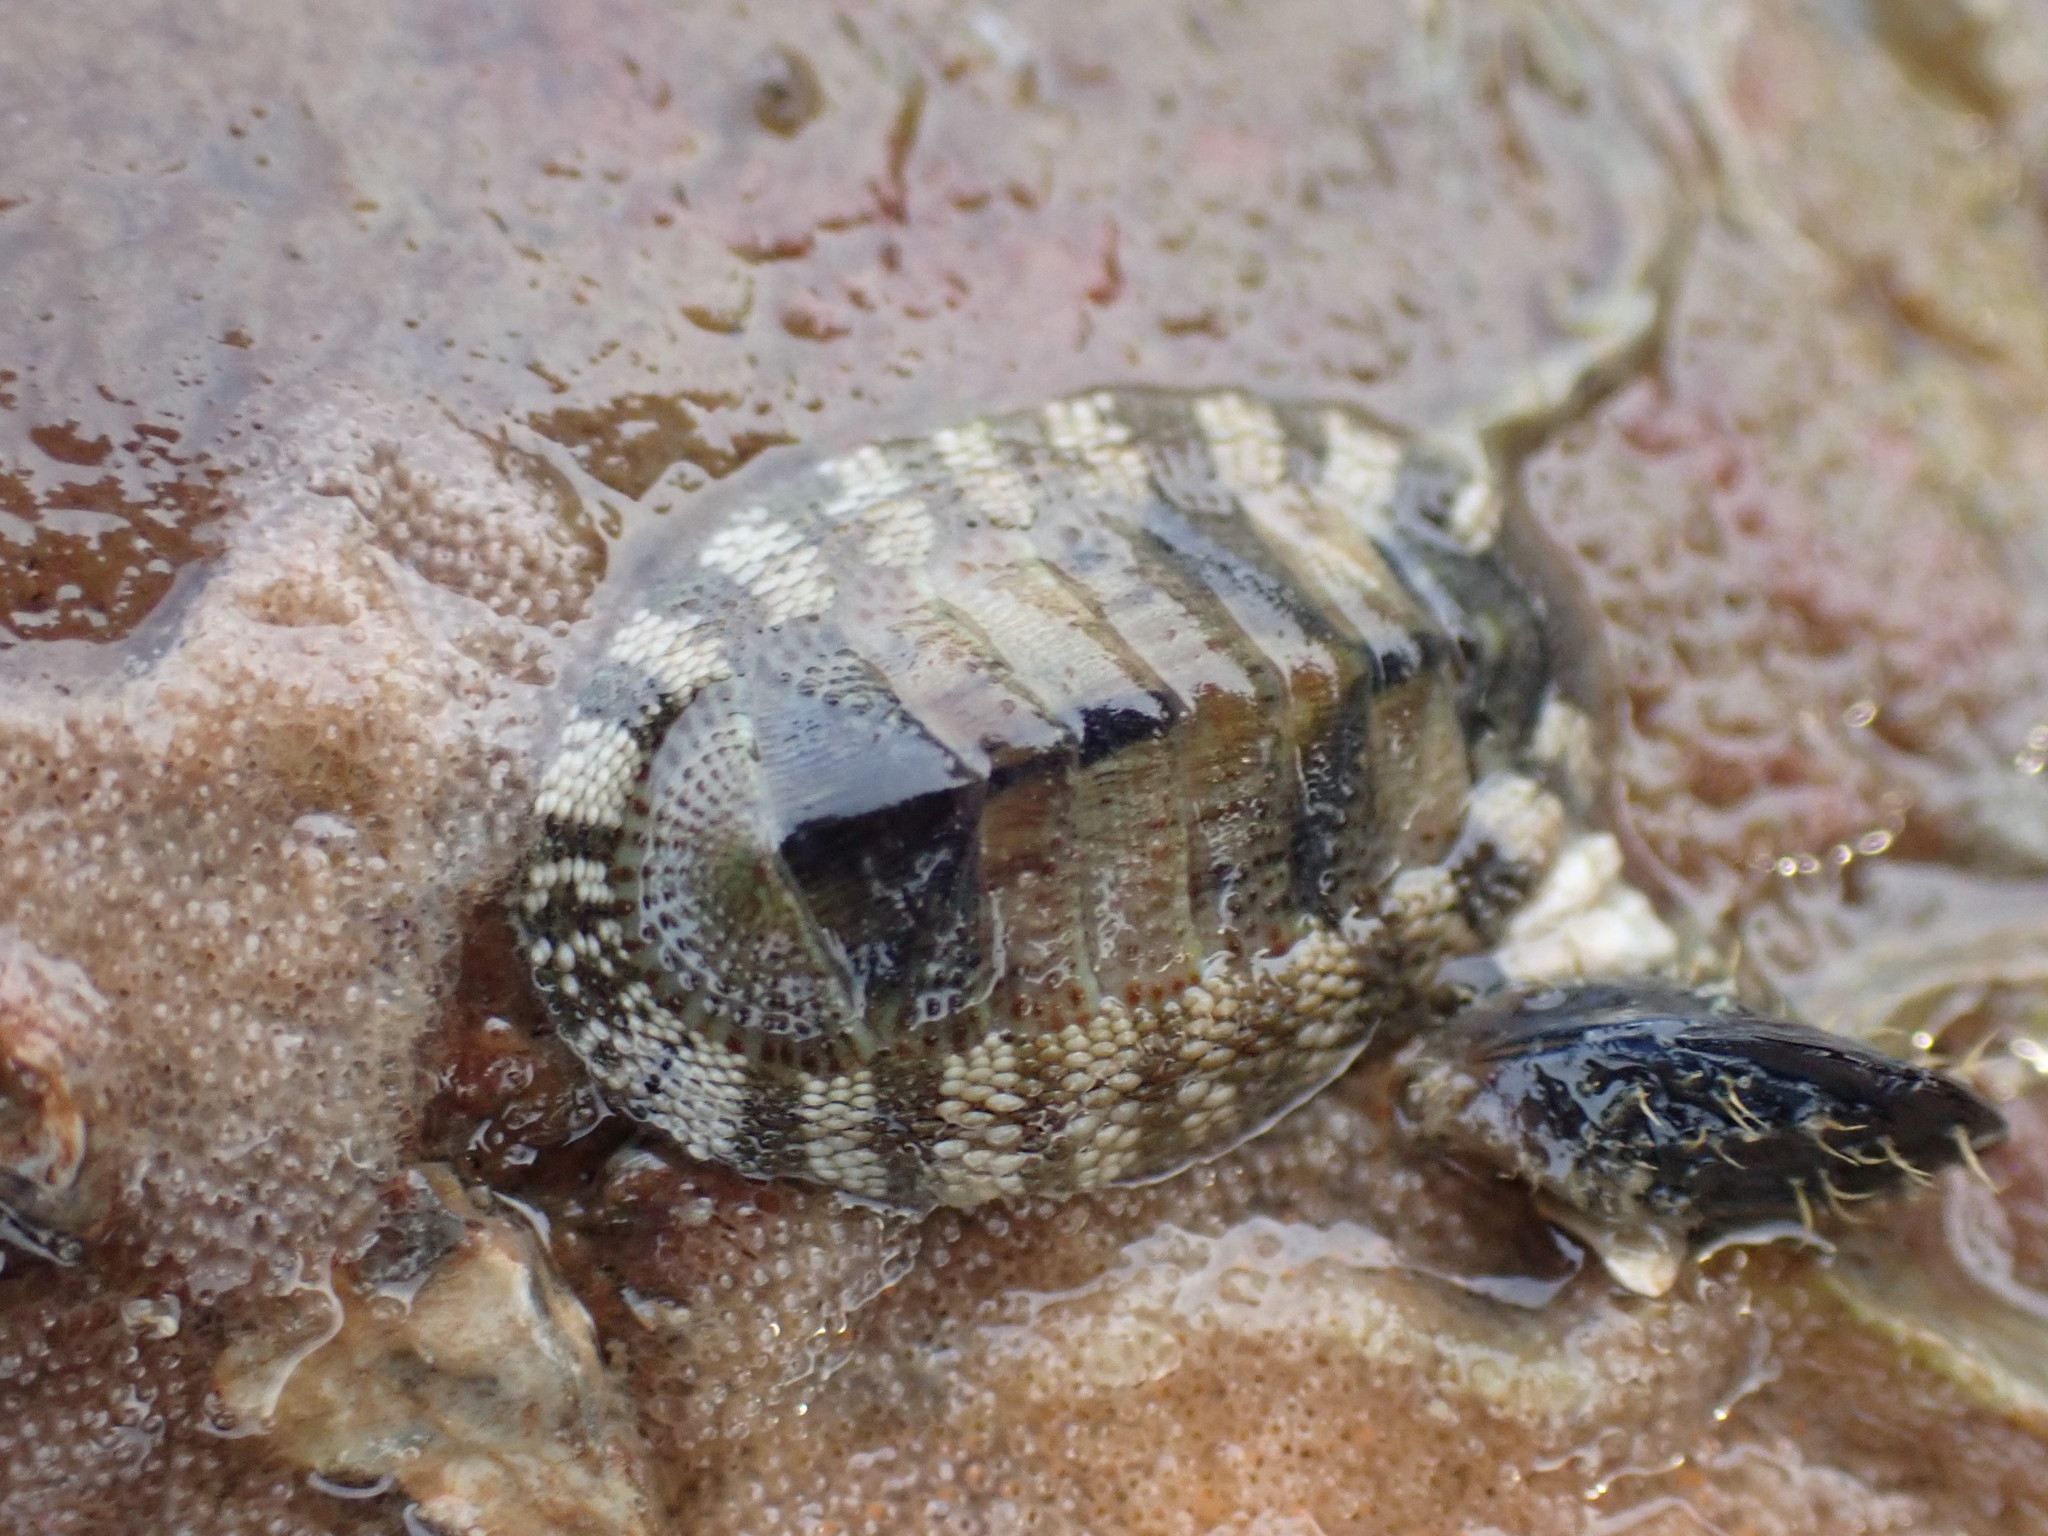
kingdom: Animalia
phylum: Mollusca
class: Polyplacophora
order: Chitonida
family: Chitonidae
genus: Sypharochiton
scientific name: Sypharochiton pelliserpentis
